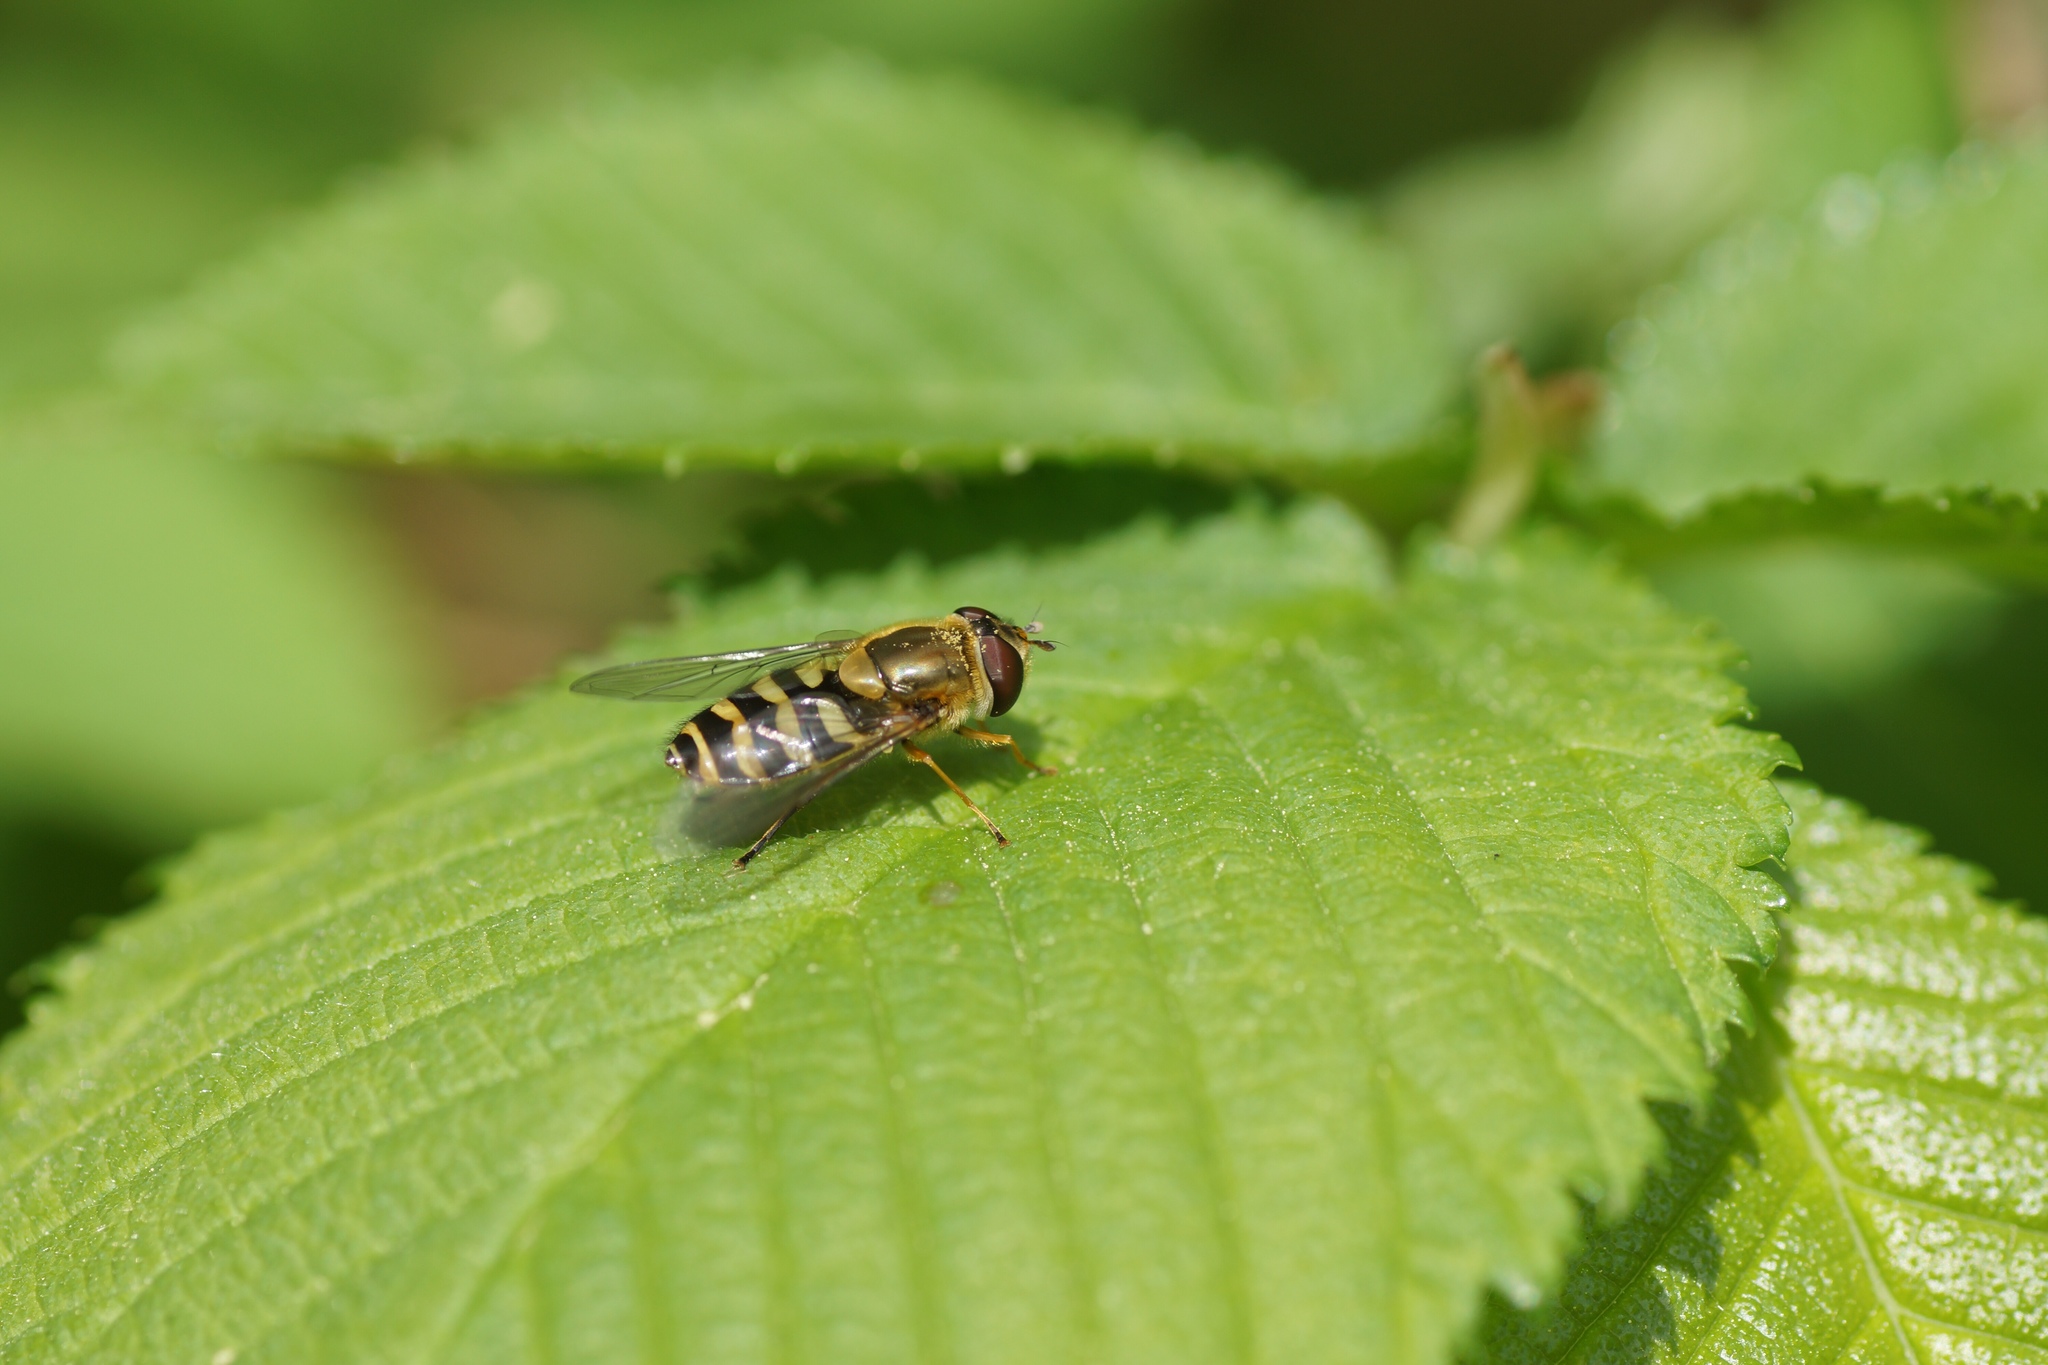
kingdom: Animalia
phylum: Arthropoda
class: Insecta
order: Diptera
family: Syrphidae
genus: Syrphus
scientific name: Syrphus
